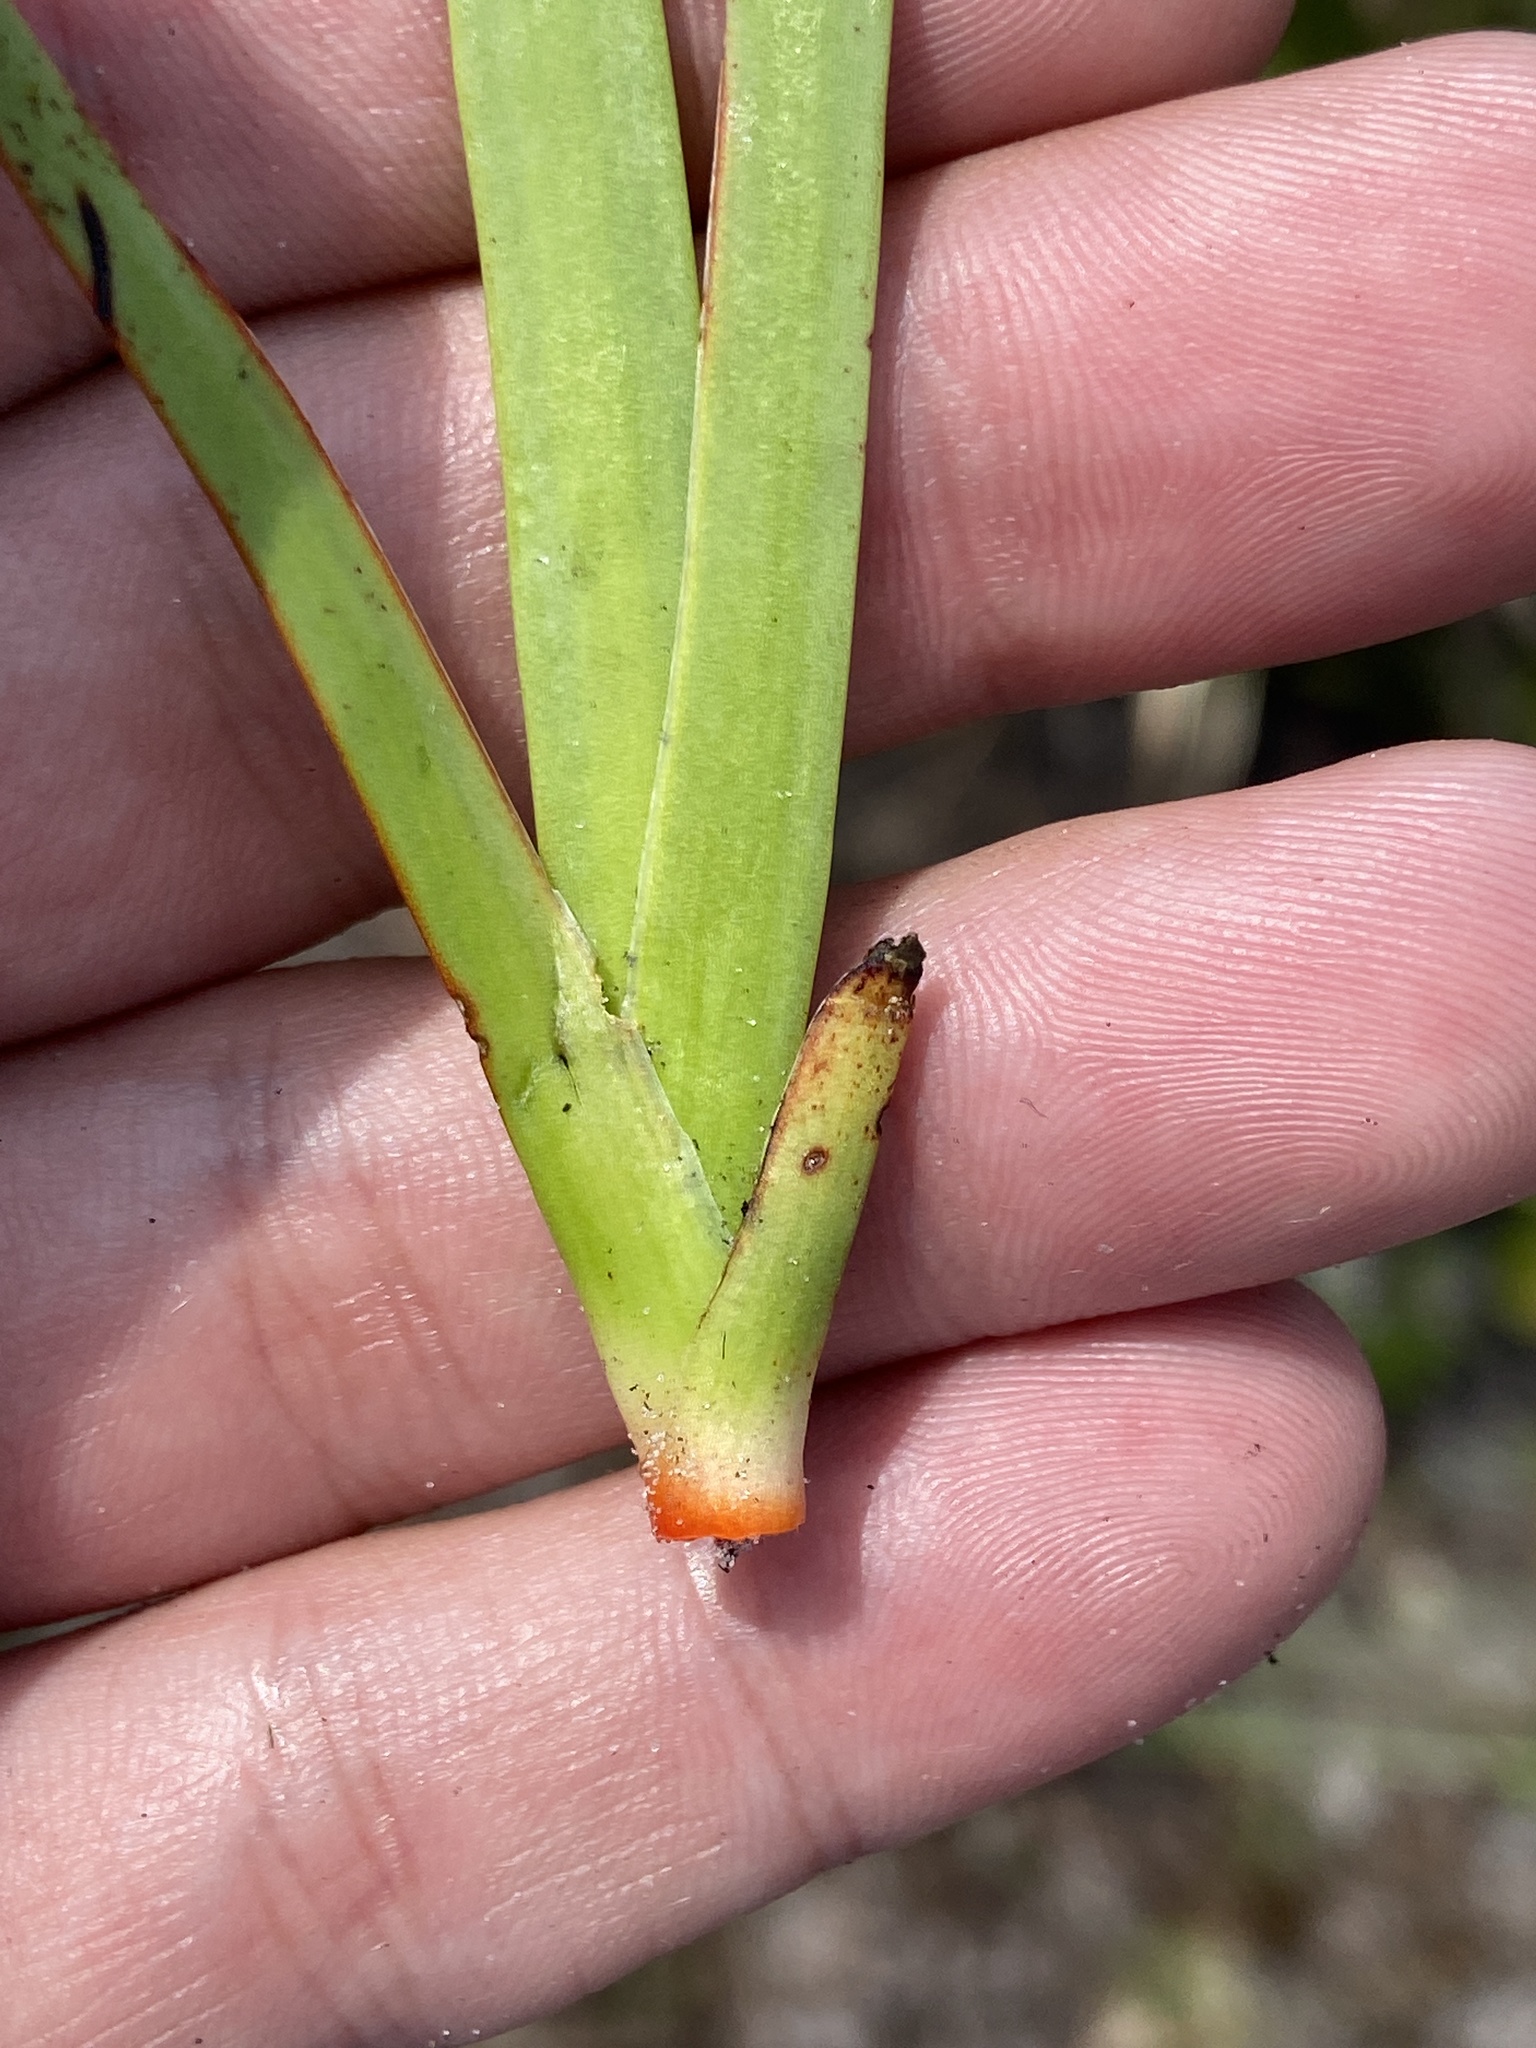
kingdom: Plantae
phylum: Tracheophyta
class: Liliopsida
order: Commelinales
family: Haemodoraceae
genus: Lachnanthes
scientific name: Lachnanthes caroliana
